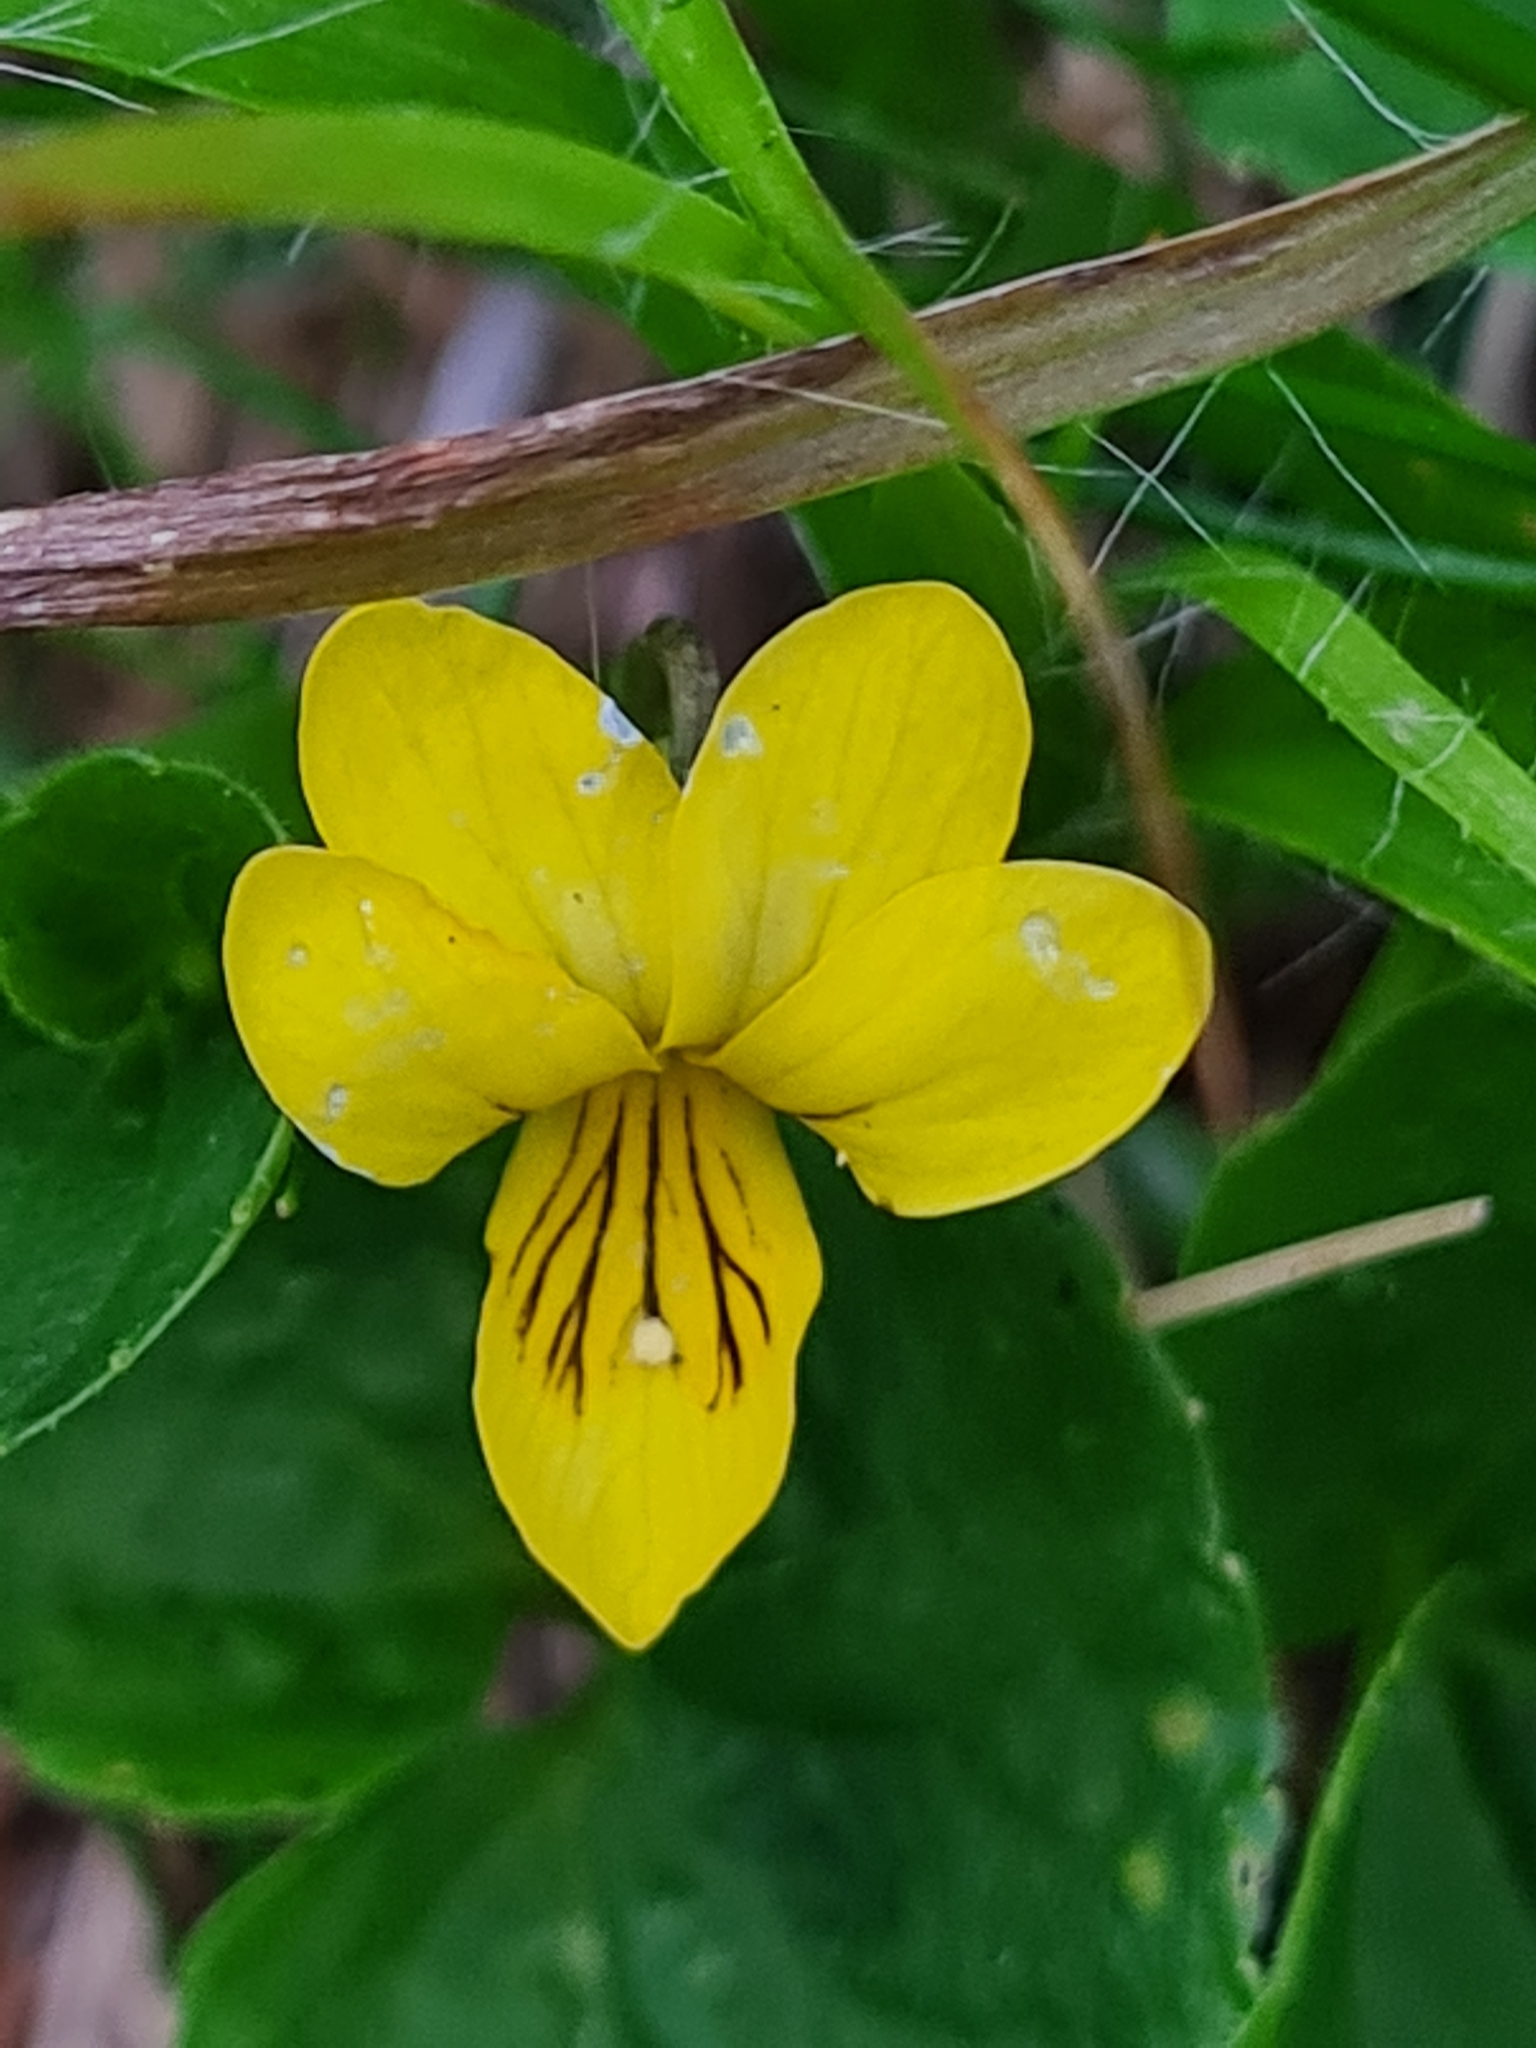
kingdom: Plantae
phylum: Tracheophyta
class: Magnoliopsida
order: Malpighiales
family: Violaceae
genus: Viola
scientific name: Viola biflora
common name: Alpine yellow violet
